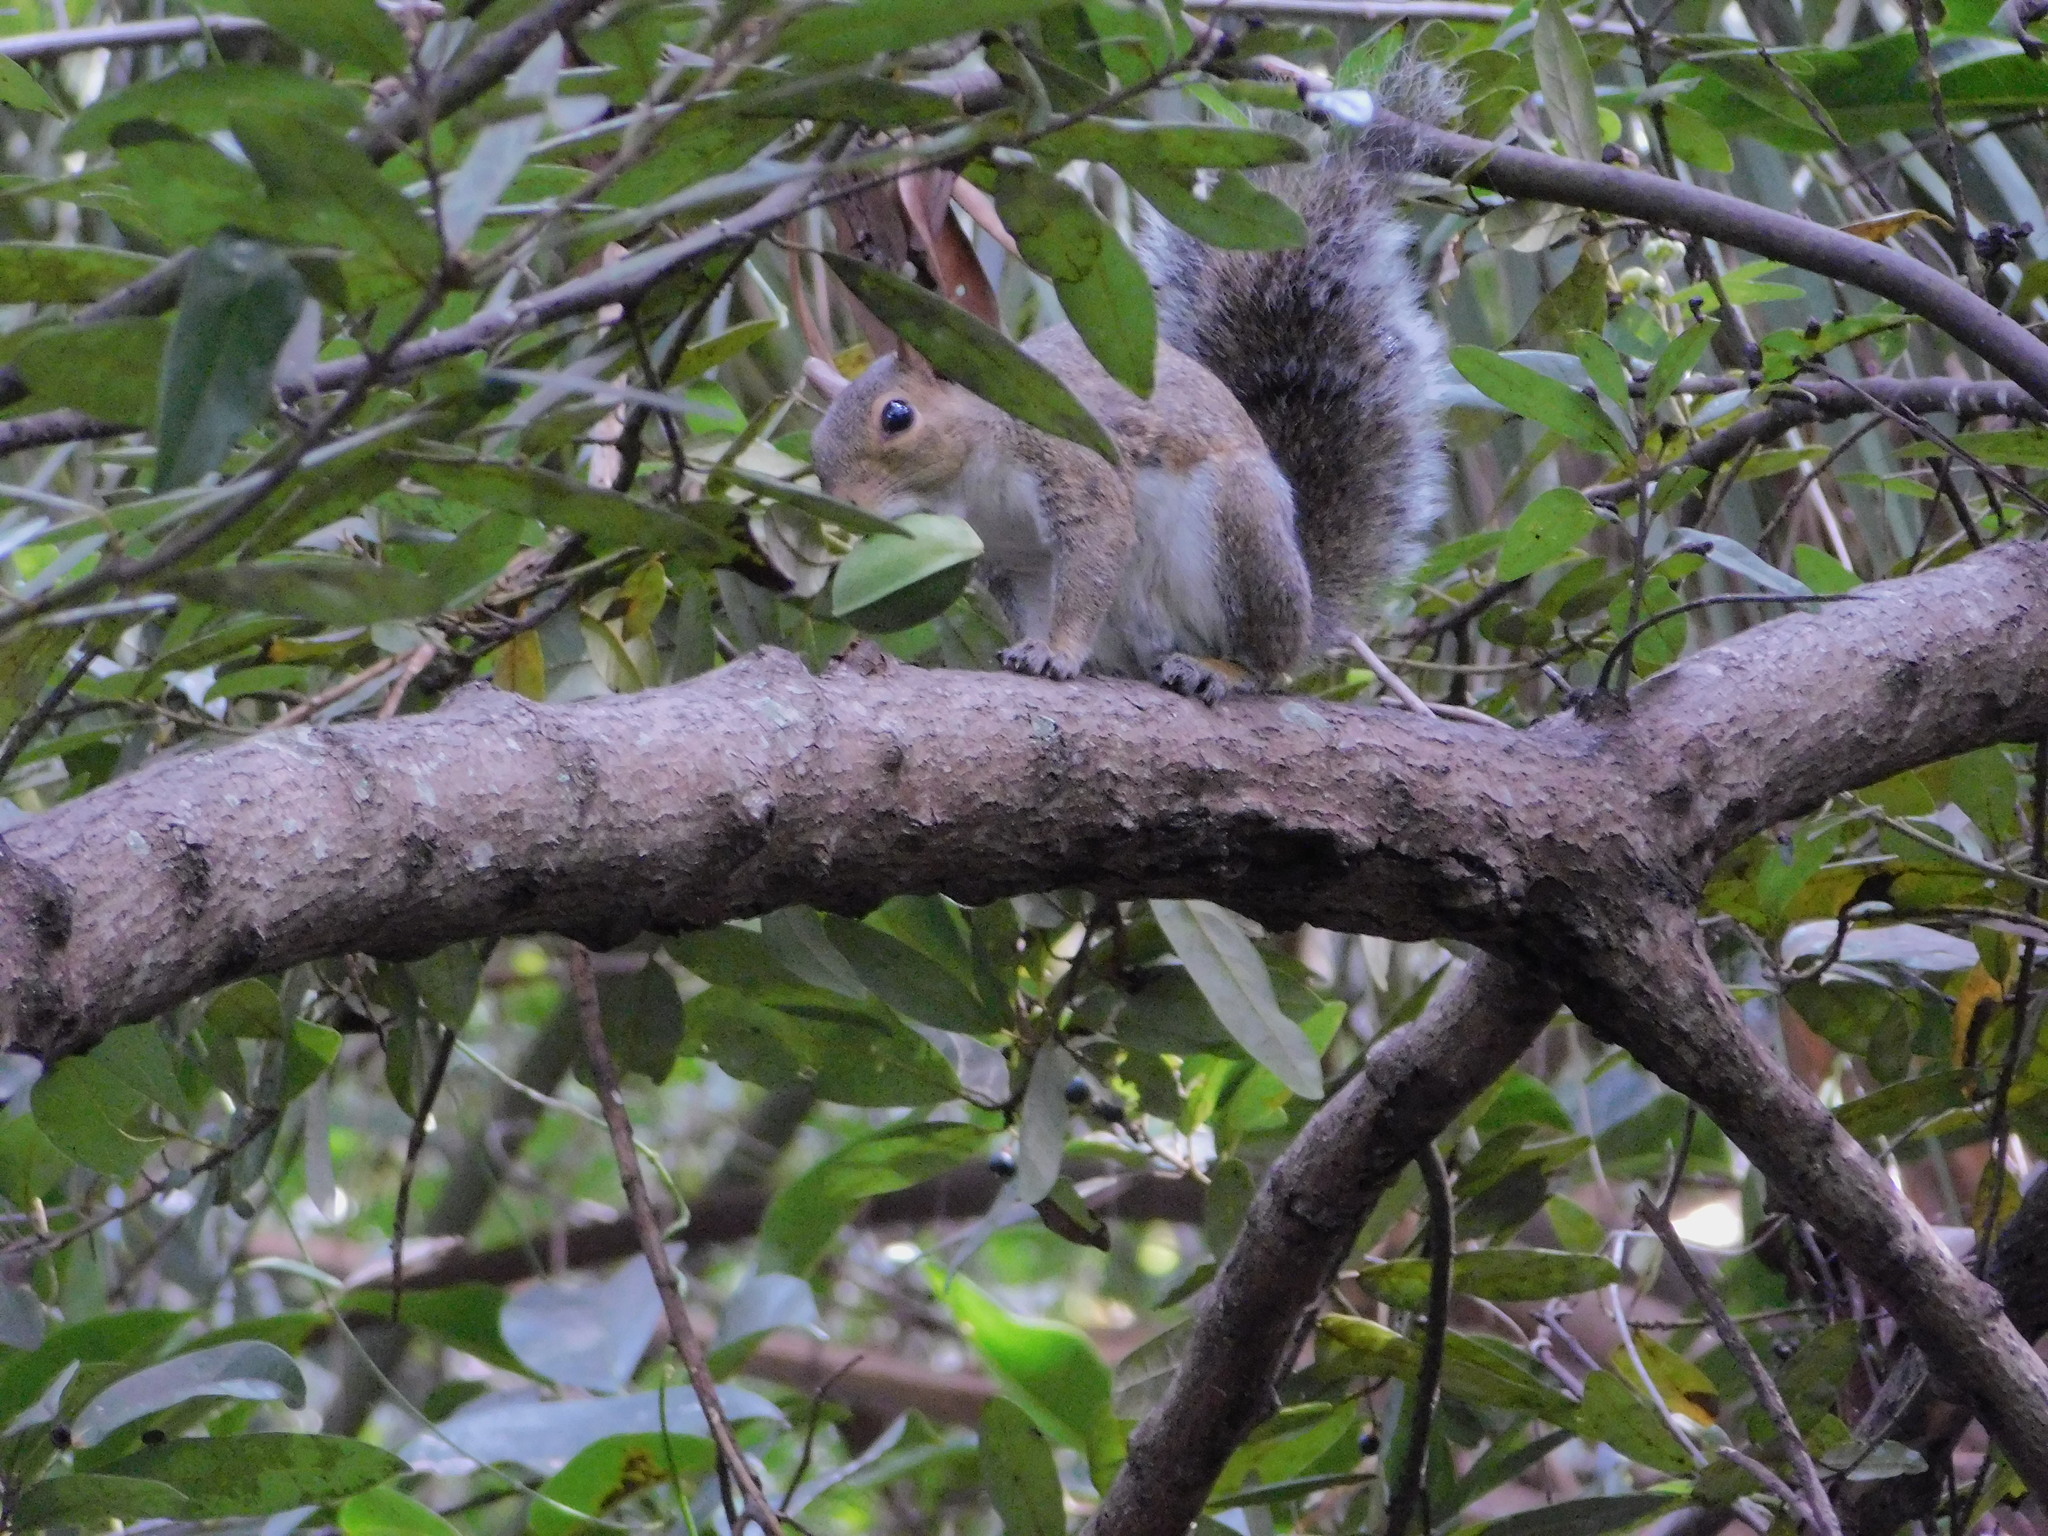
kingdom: Animalia
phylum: Chordata
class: Mammalia
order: Rodentia
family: Sciuridae
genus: Sciurus
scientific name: Sciurus carolinensis
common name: Eastern gray squirrel
